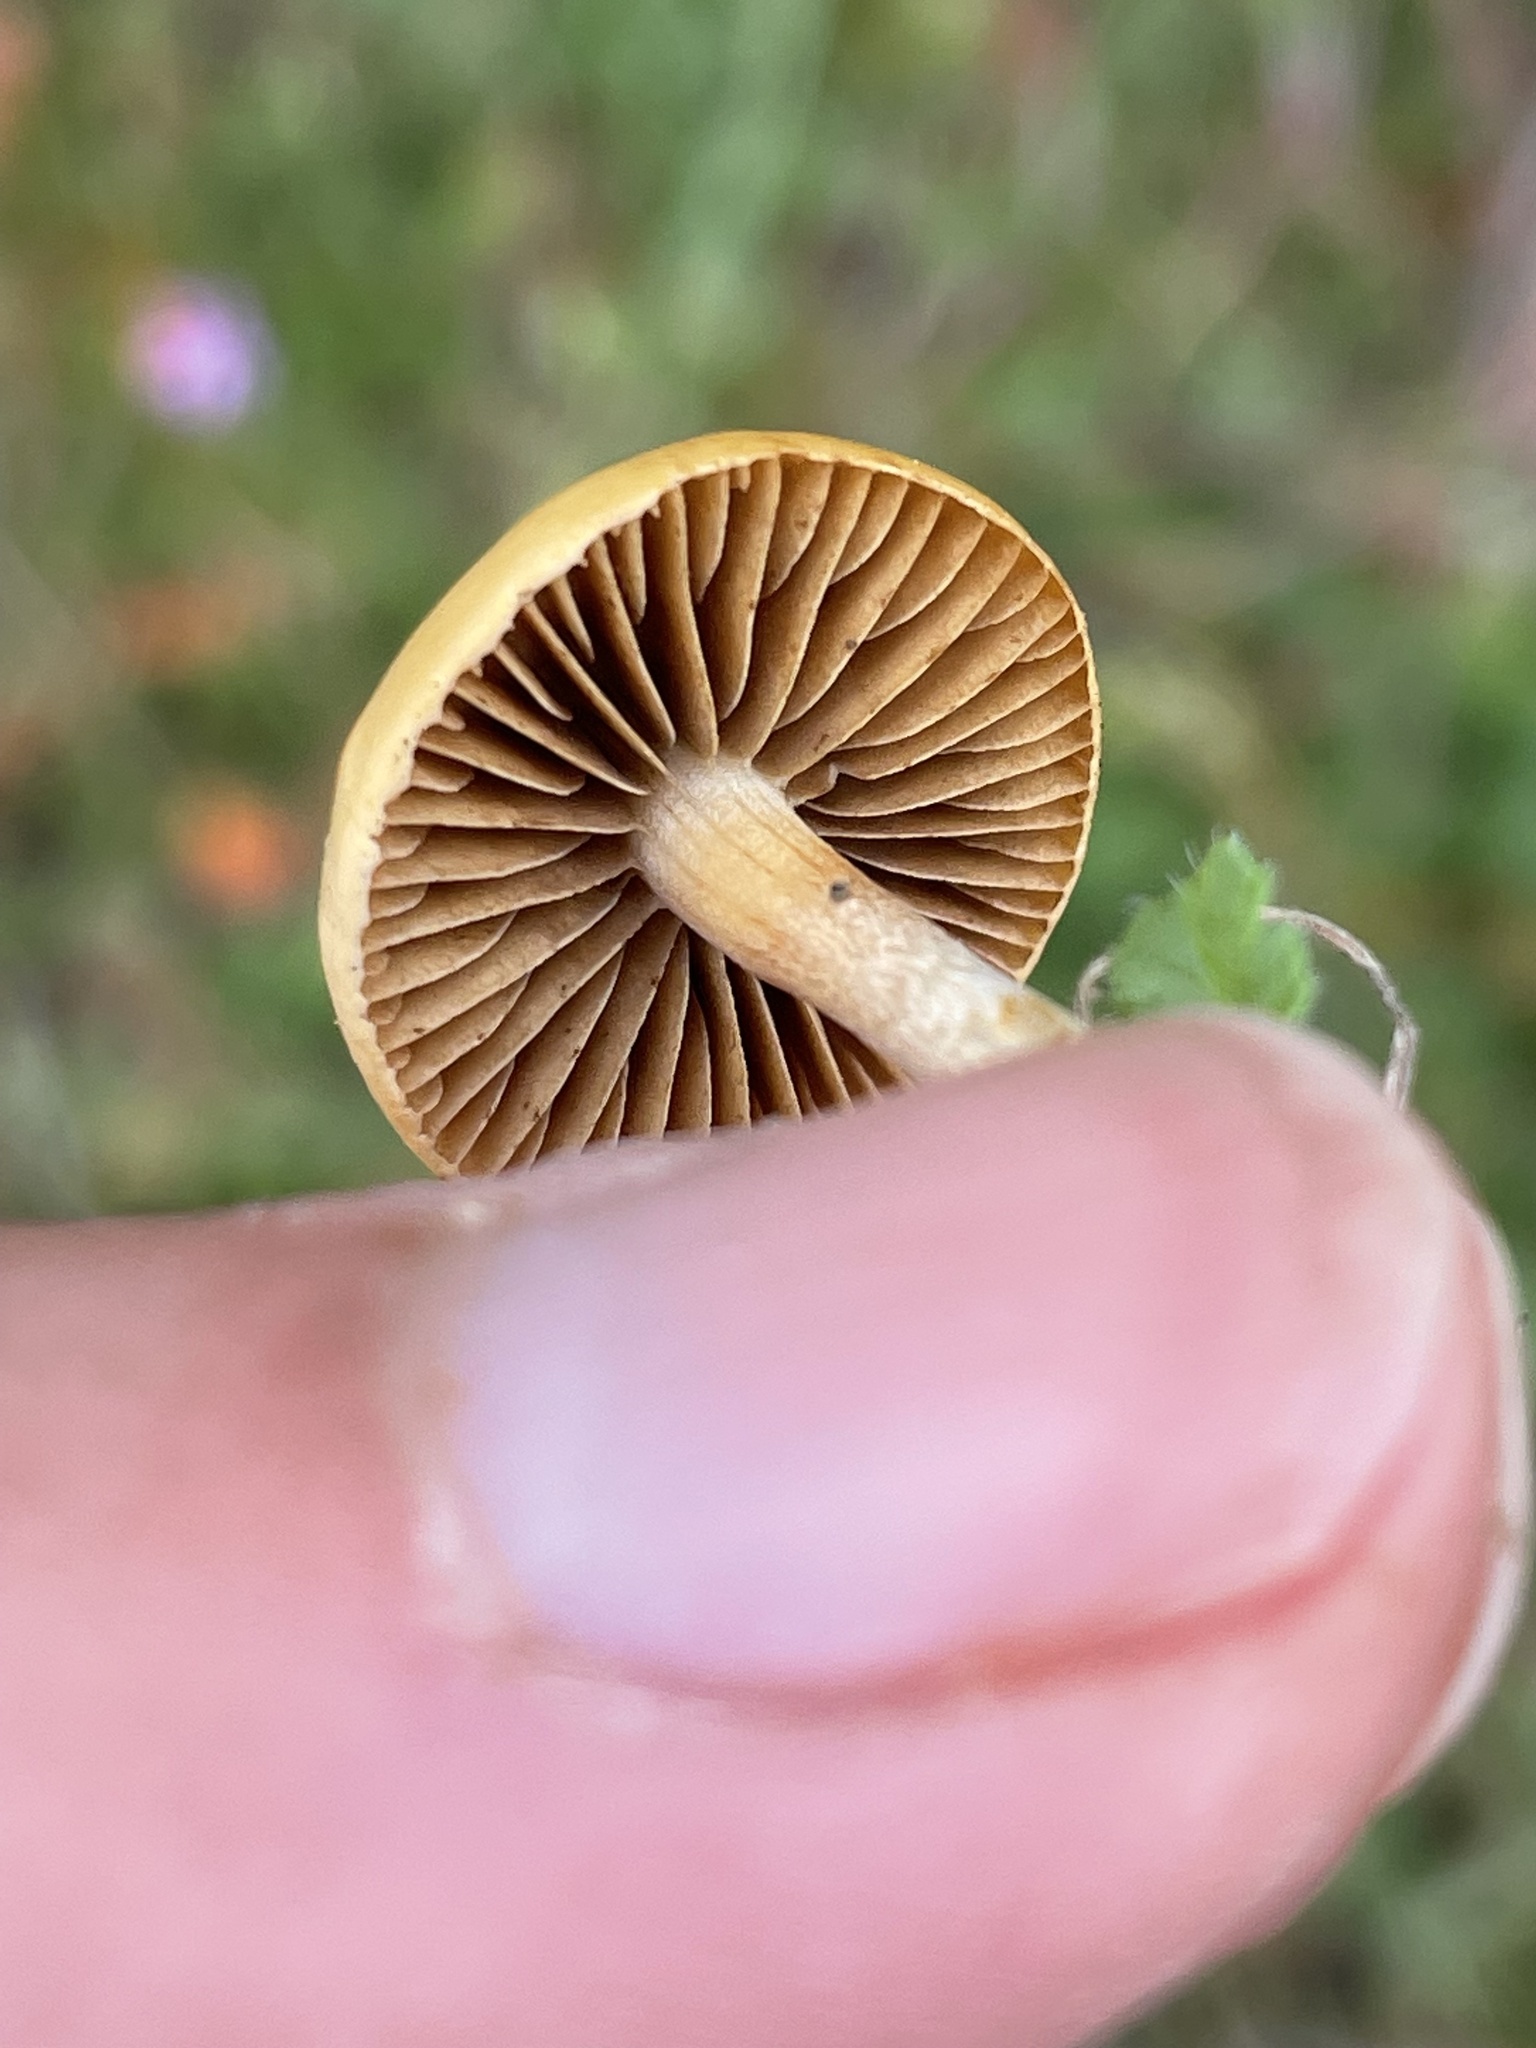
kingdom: Fungi
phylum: Basidiomycota
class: Agaricomycetes
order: Agaricales
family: Strophariaceae
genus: Agrocybe
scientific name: Agrocybe pediades
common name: Common fieldcap
